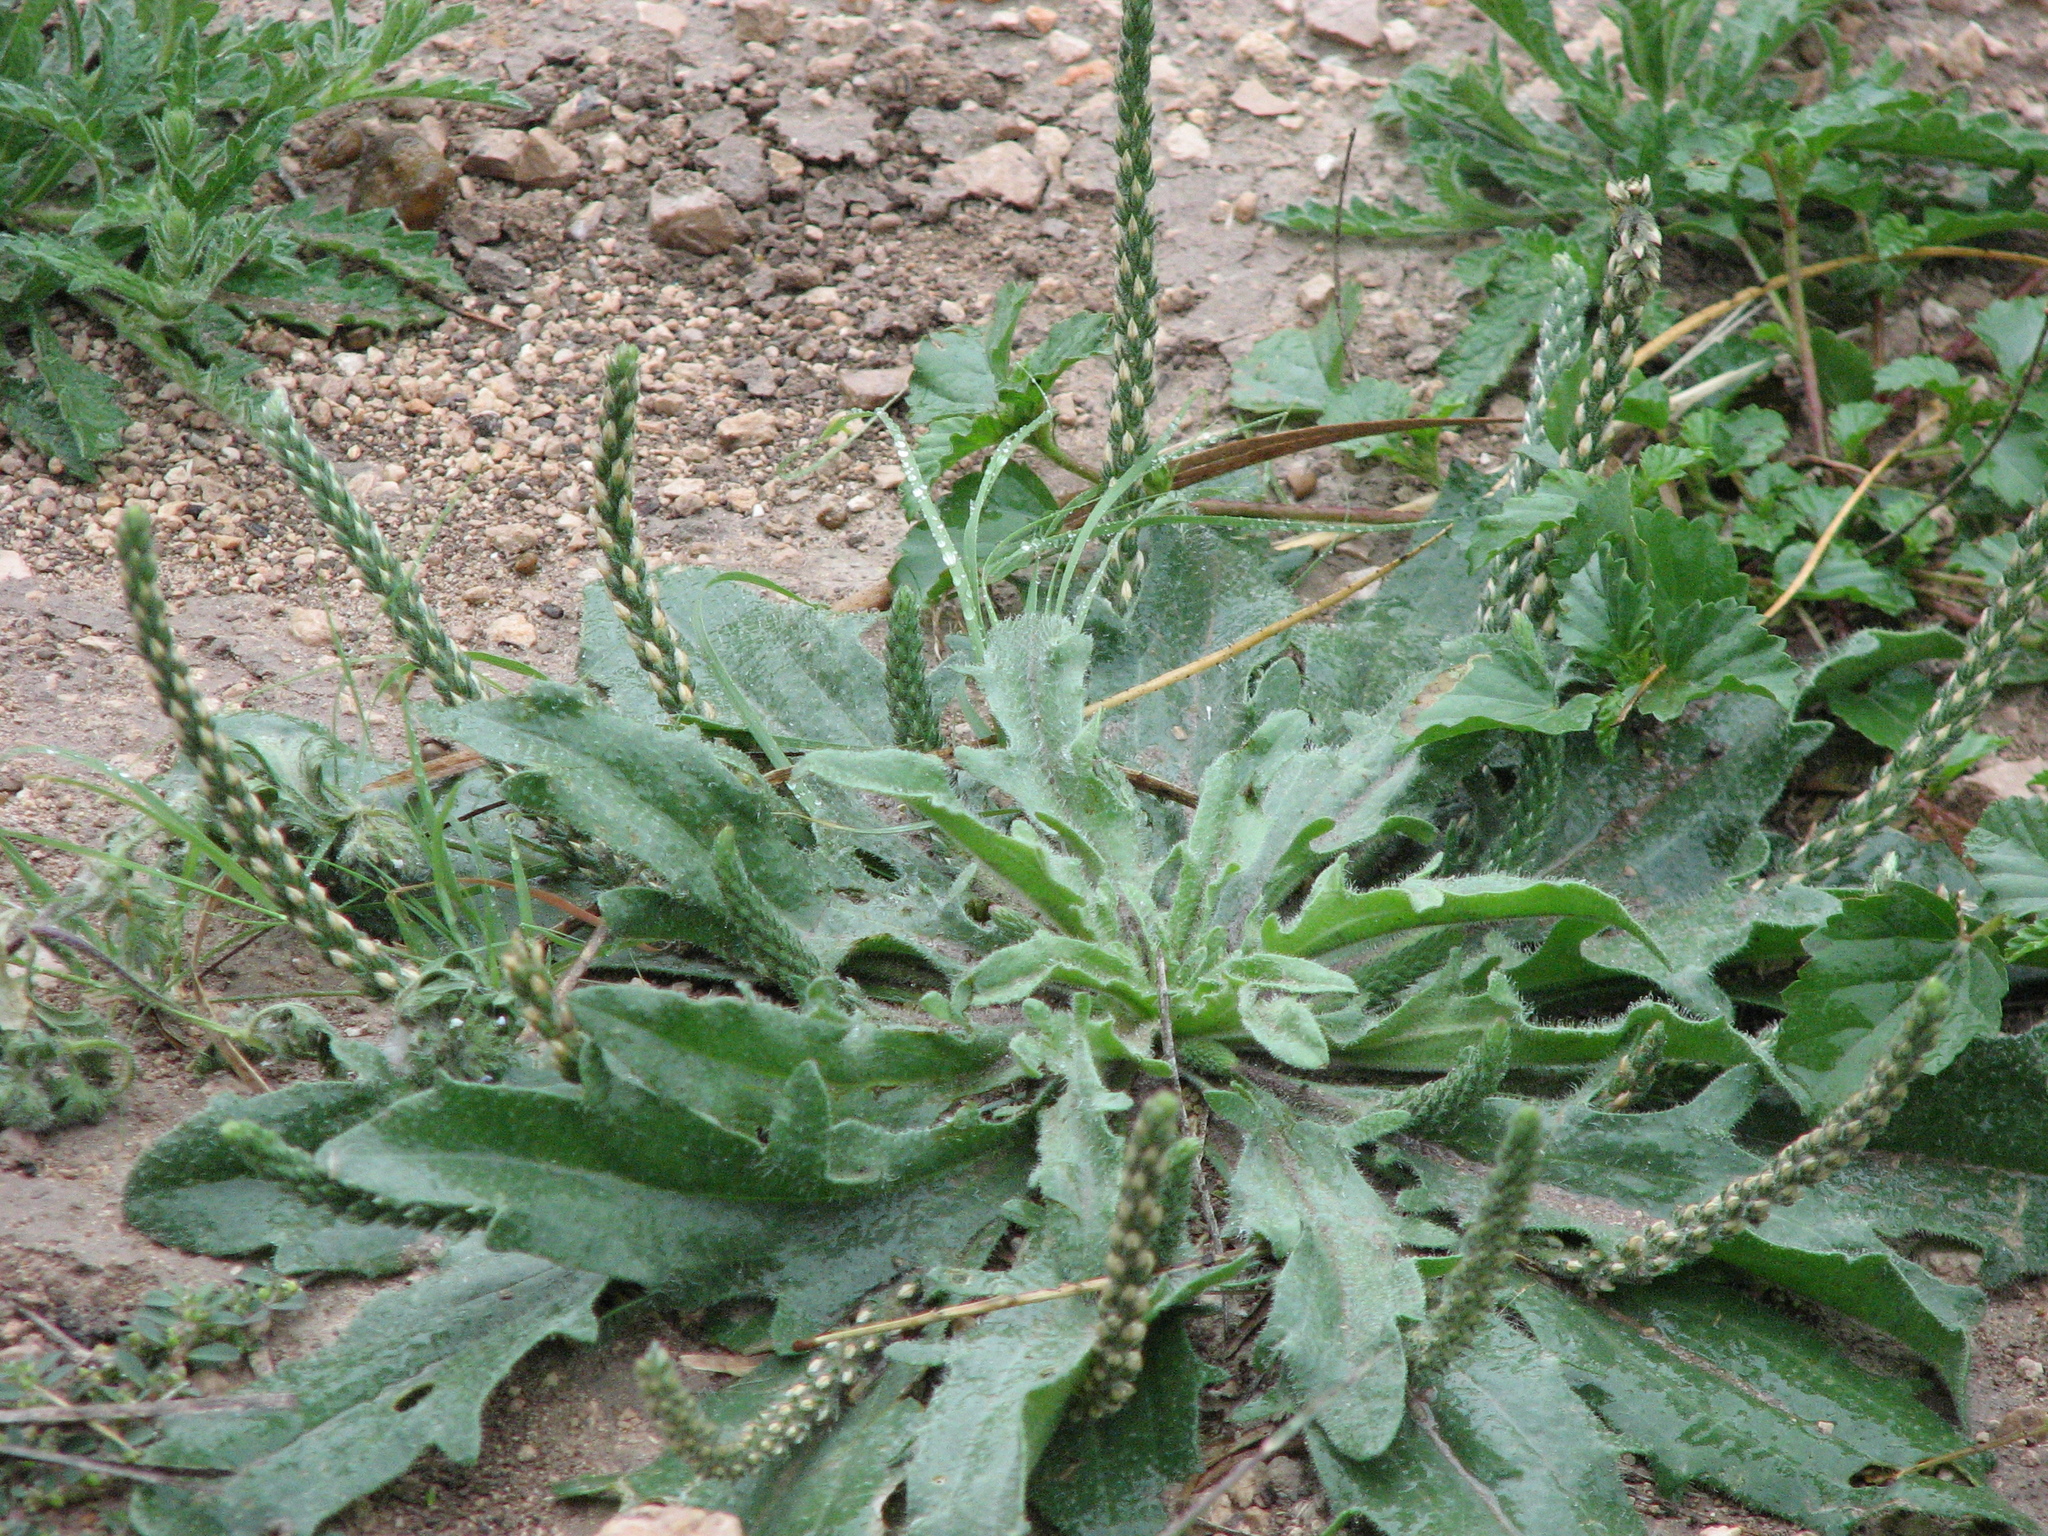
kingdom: Plantae
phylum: Tracheophyta
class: Magnoliopsida
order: Lamiales
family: Plantaginaceae
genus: Plantago
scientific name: Plantago rhodosperma
